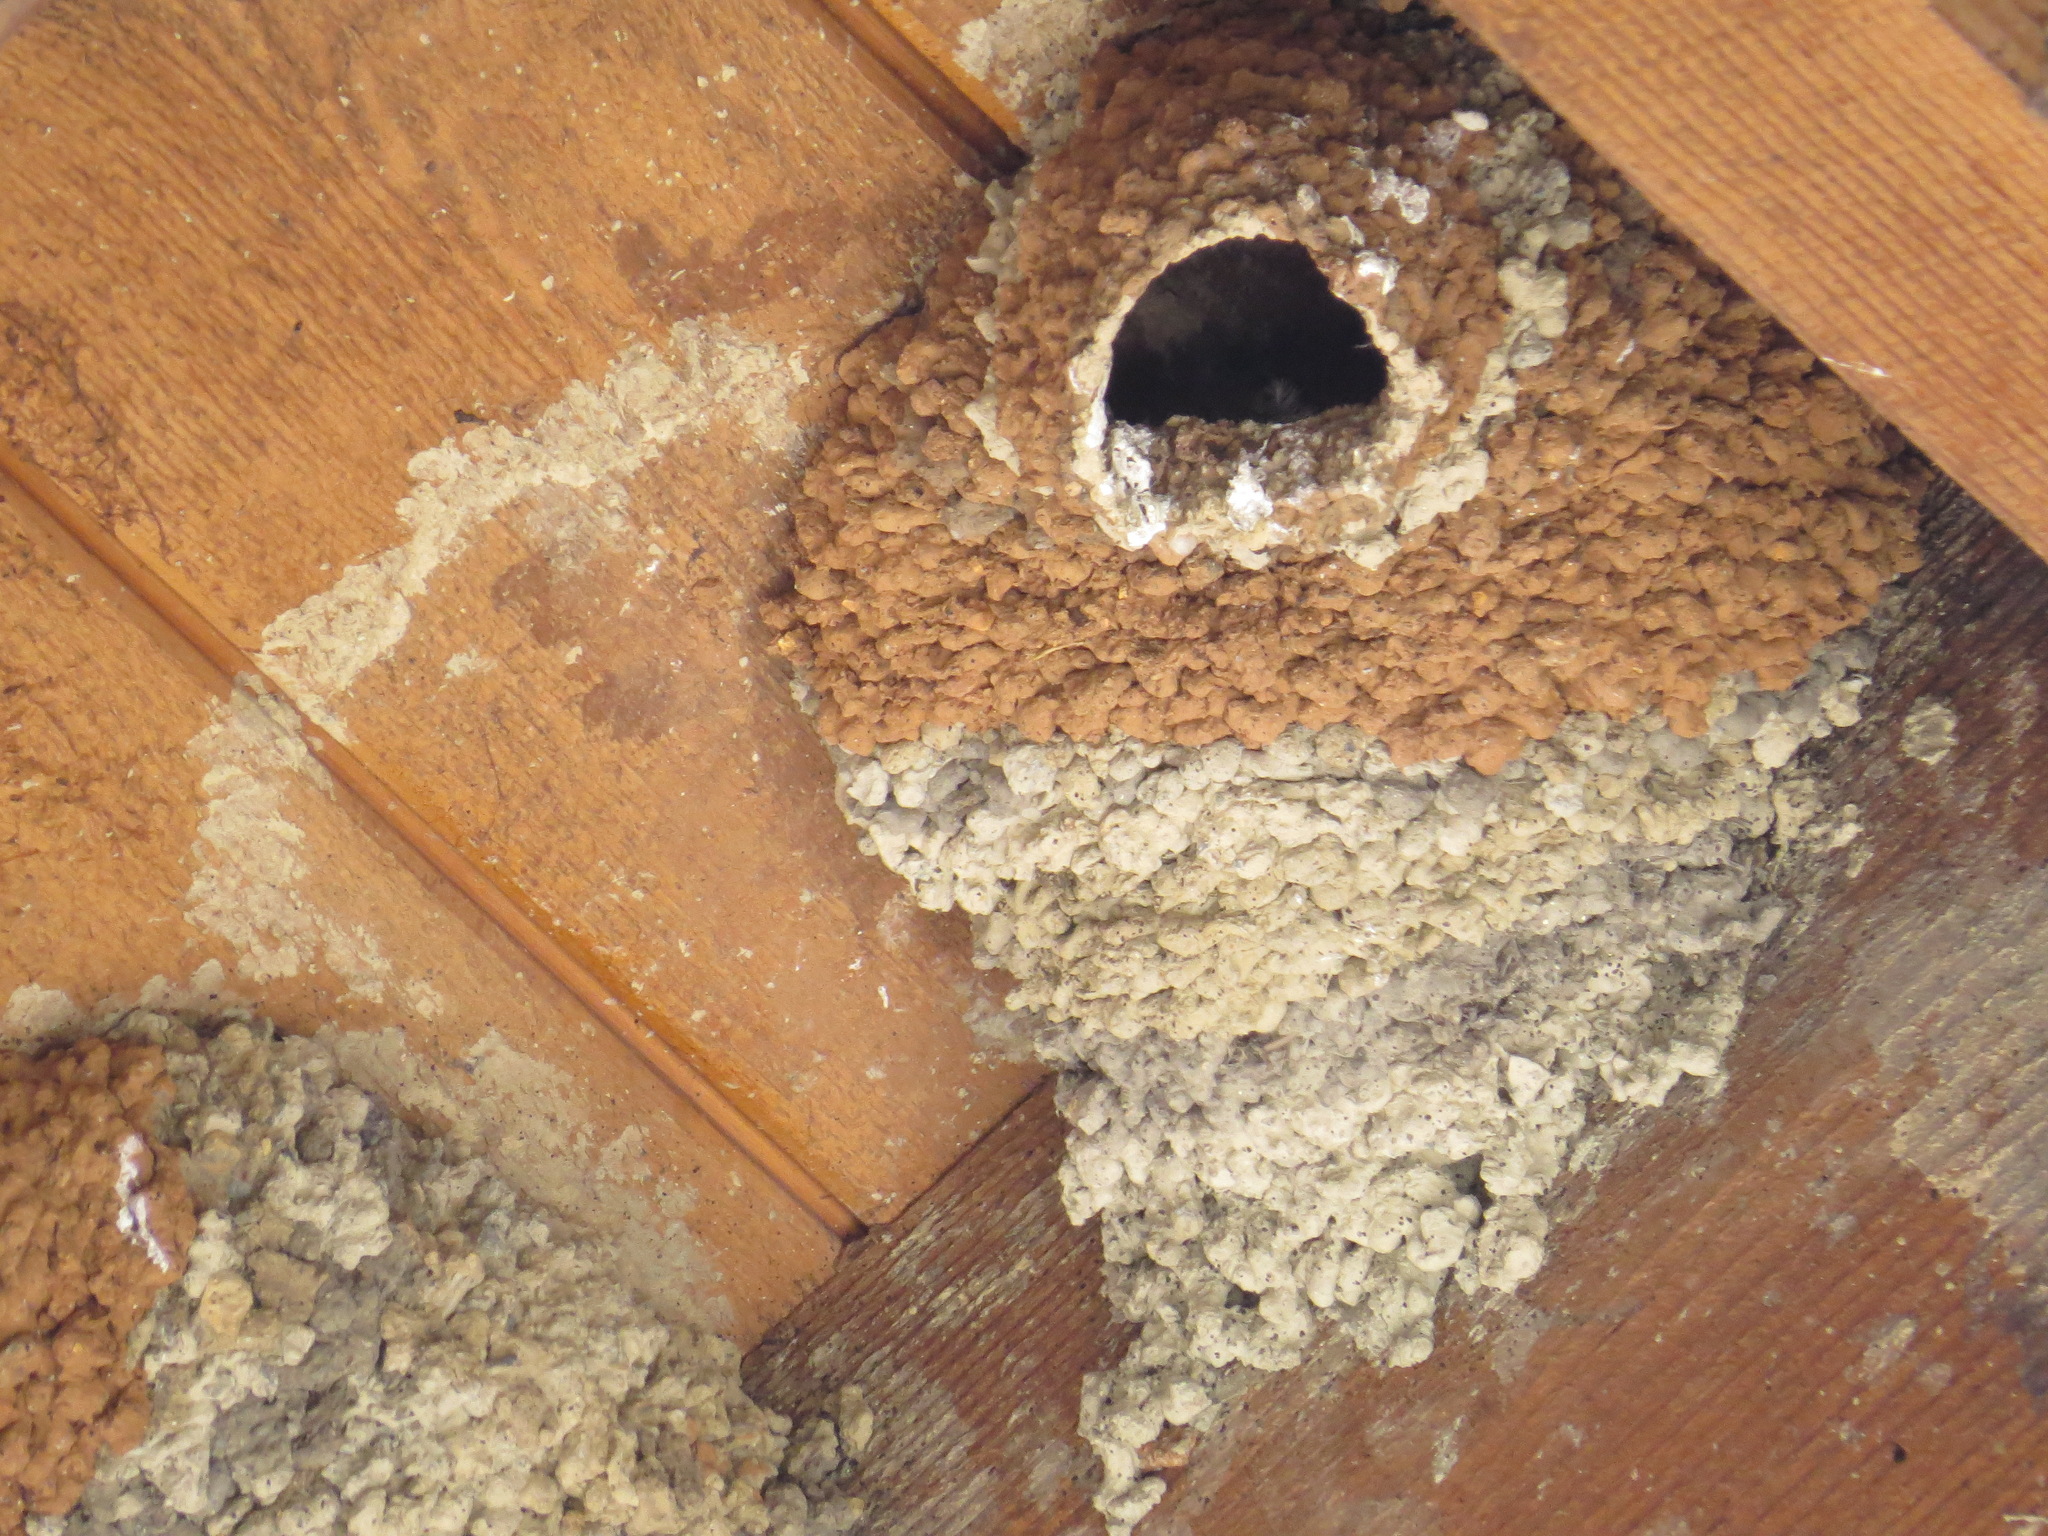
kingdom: Animalia
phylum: Chordata
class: Aves
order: Passeriformes
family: Hirundinidae
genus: Petrochelidon
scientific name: Petrochelidon pyrrhonota
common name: American cliff swallow
